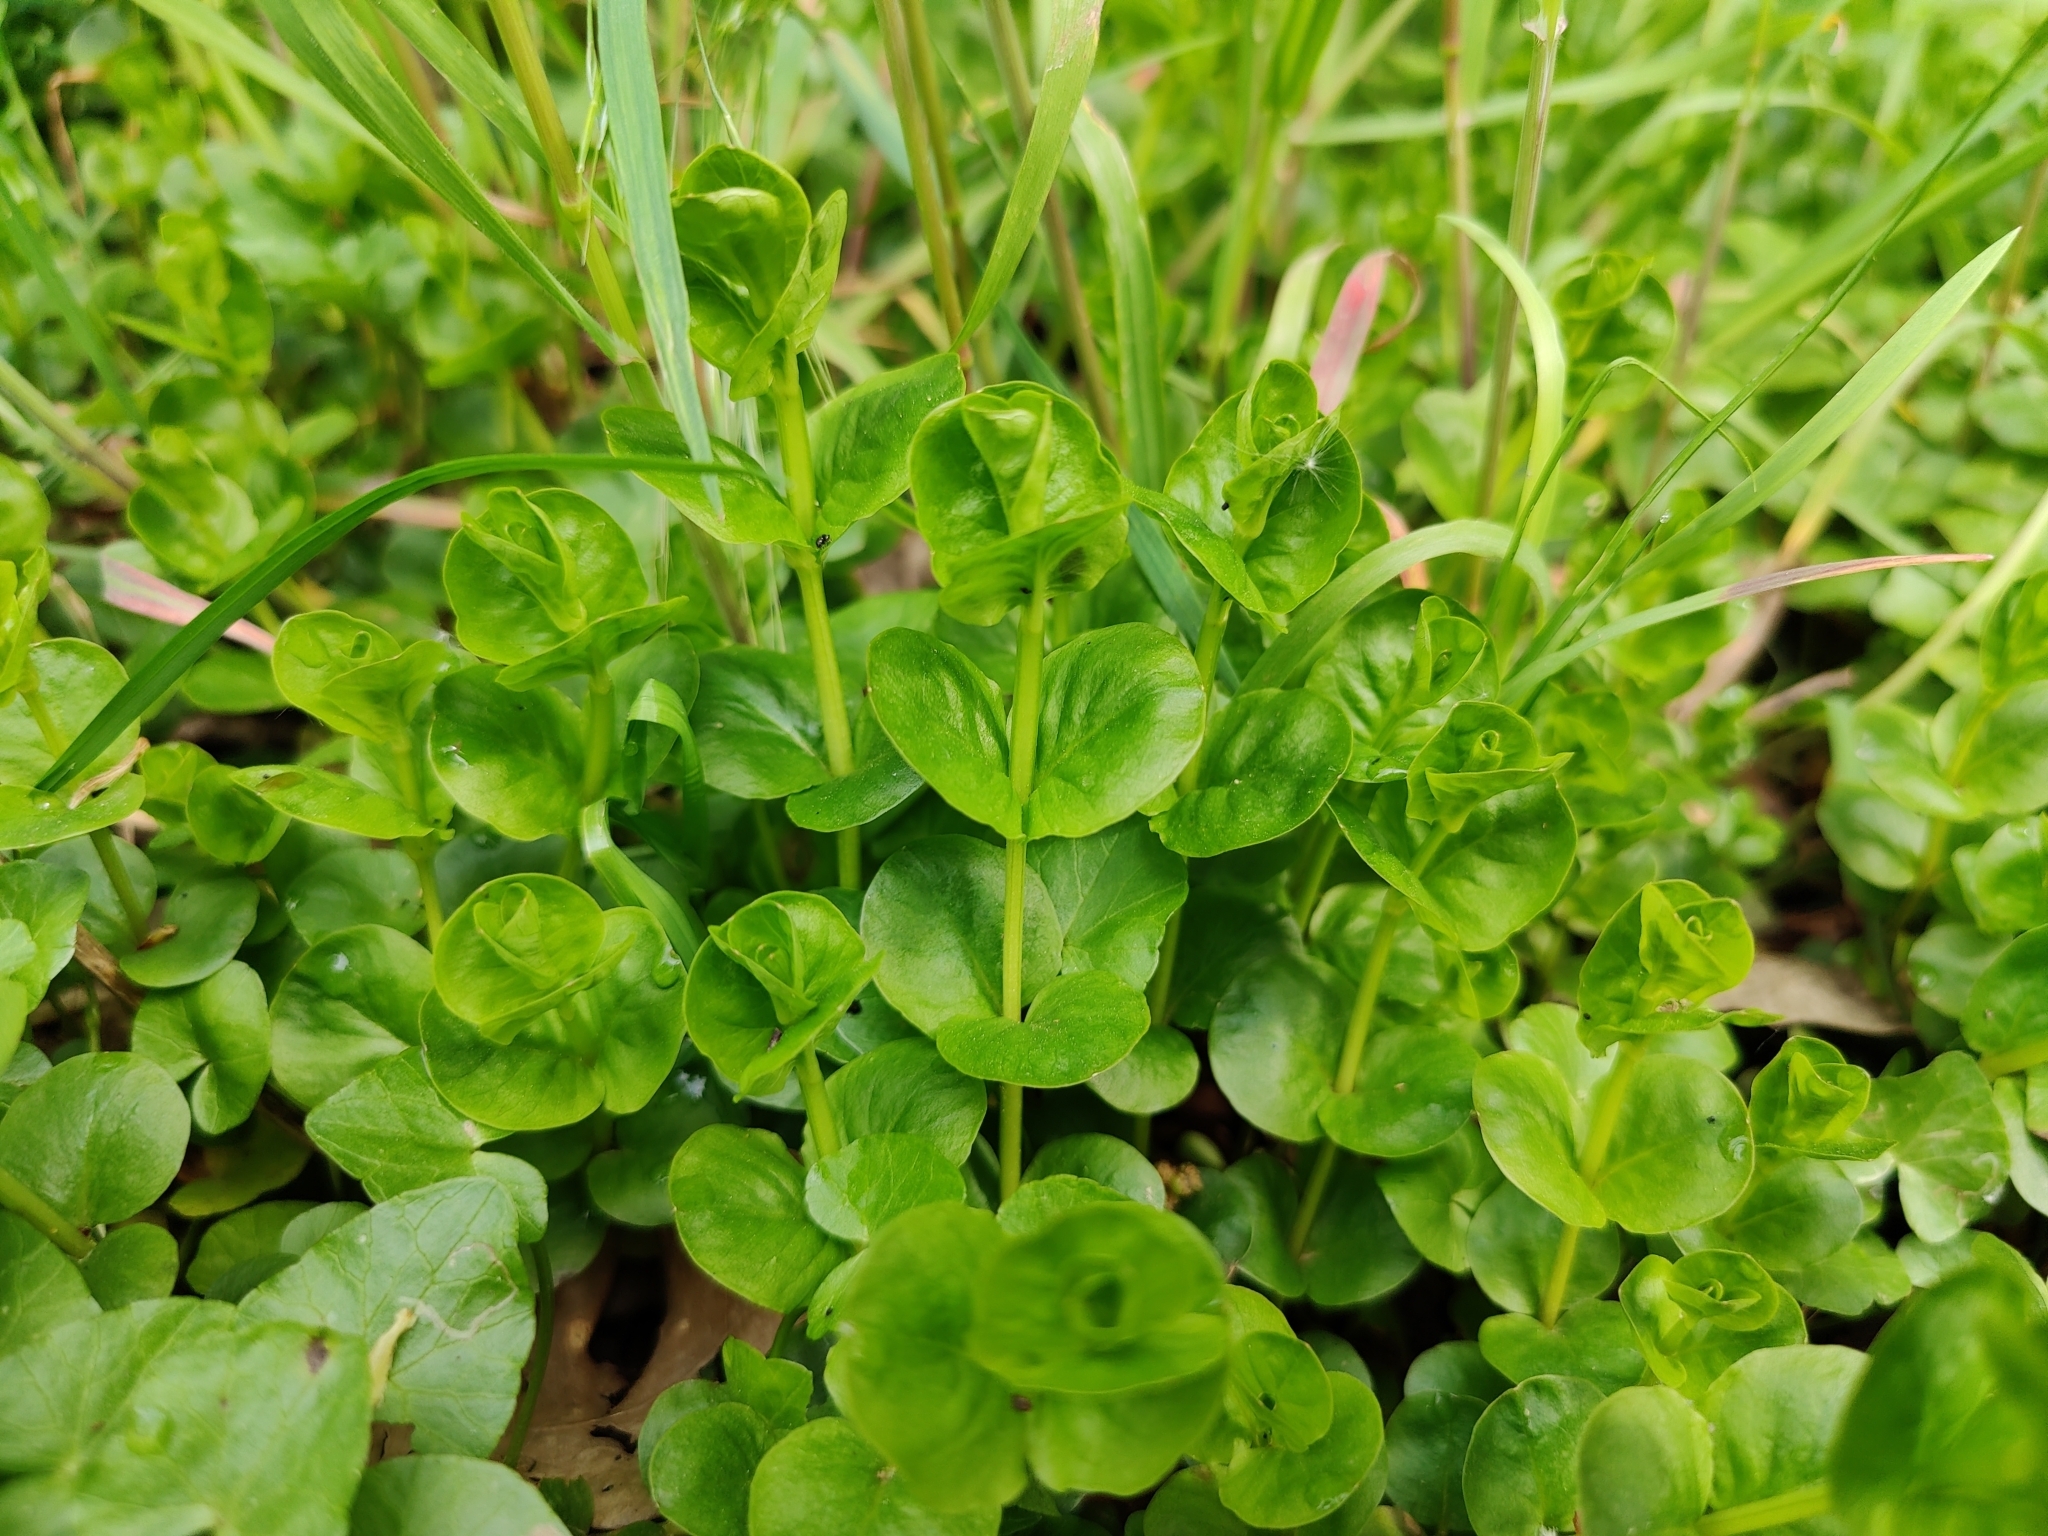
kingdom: Plantae
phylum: Tracheophyta
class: Magnoliopsida
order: Ericales
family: Primulaceae
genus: Lysimachia
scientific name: Lysimachia nummularia
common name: Moneywort
